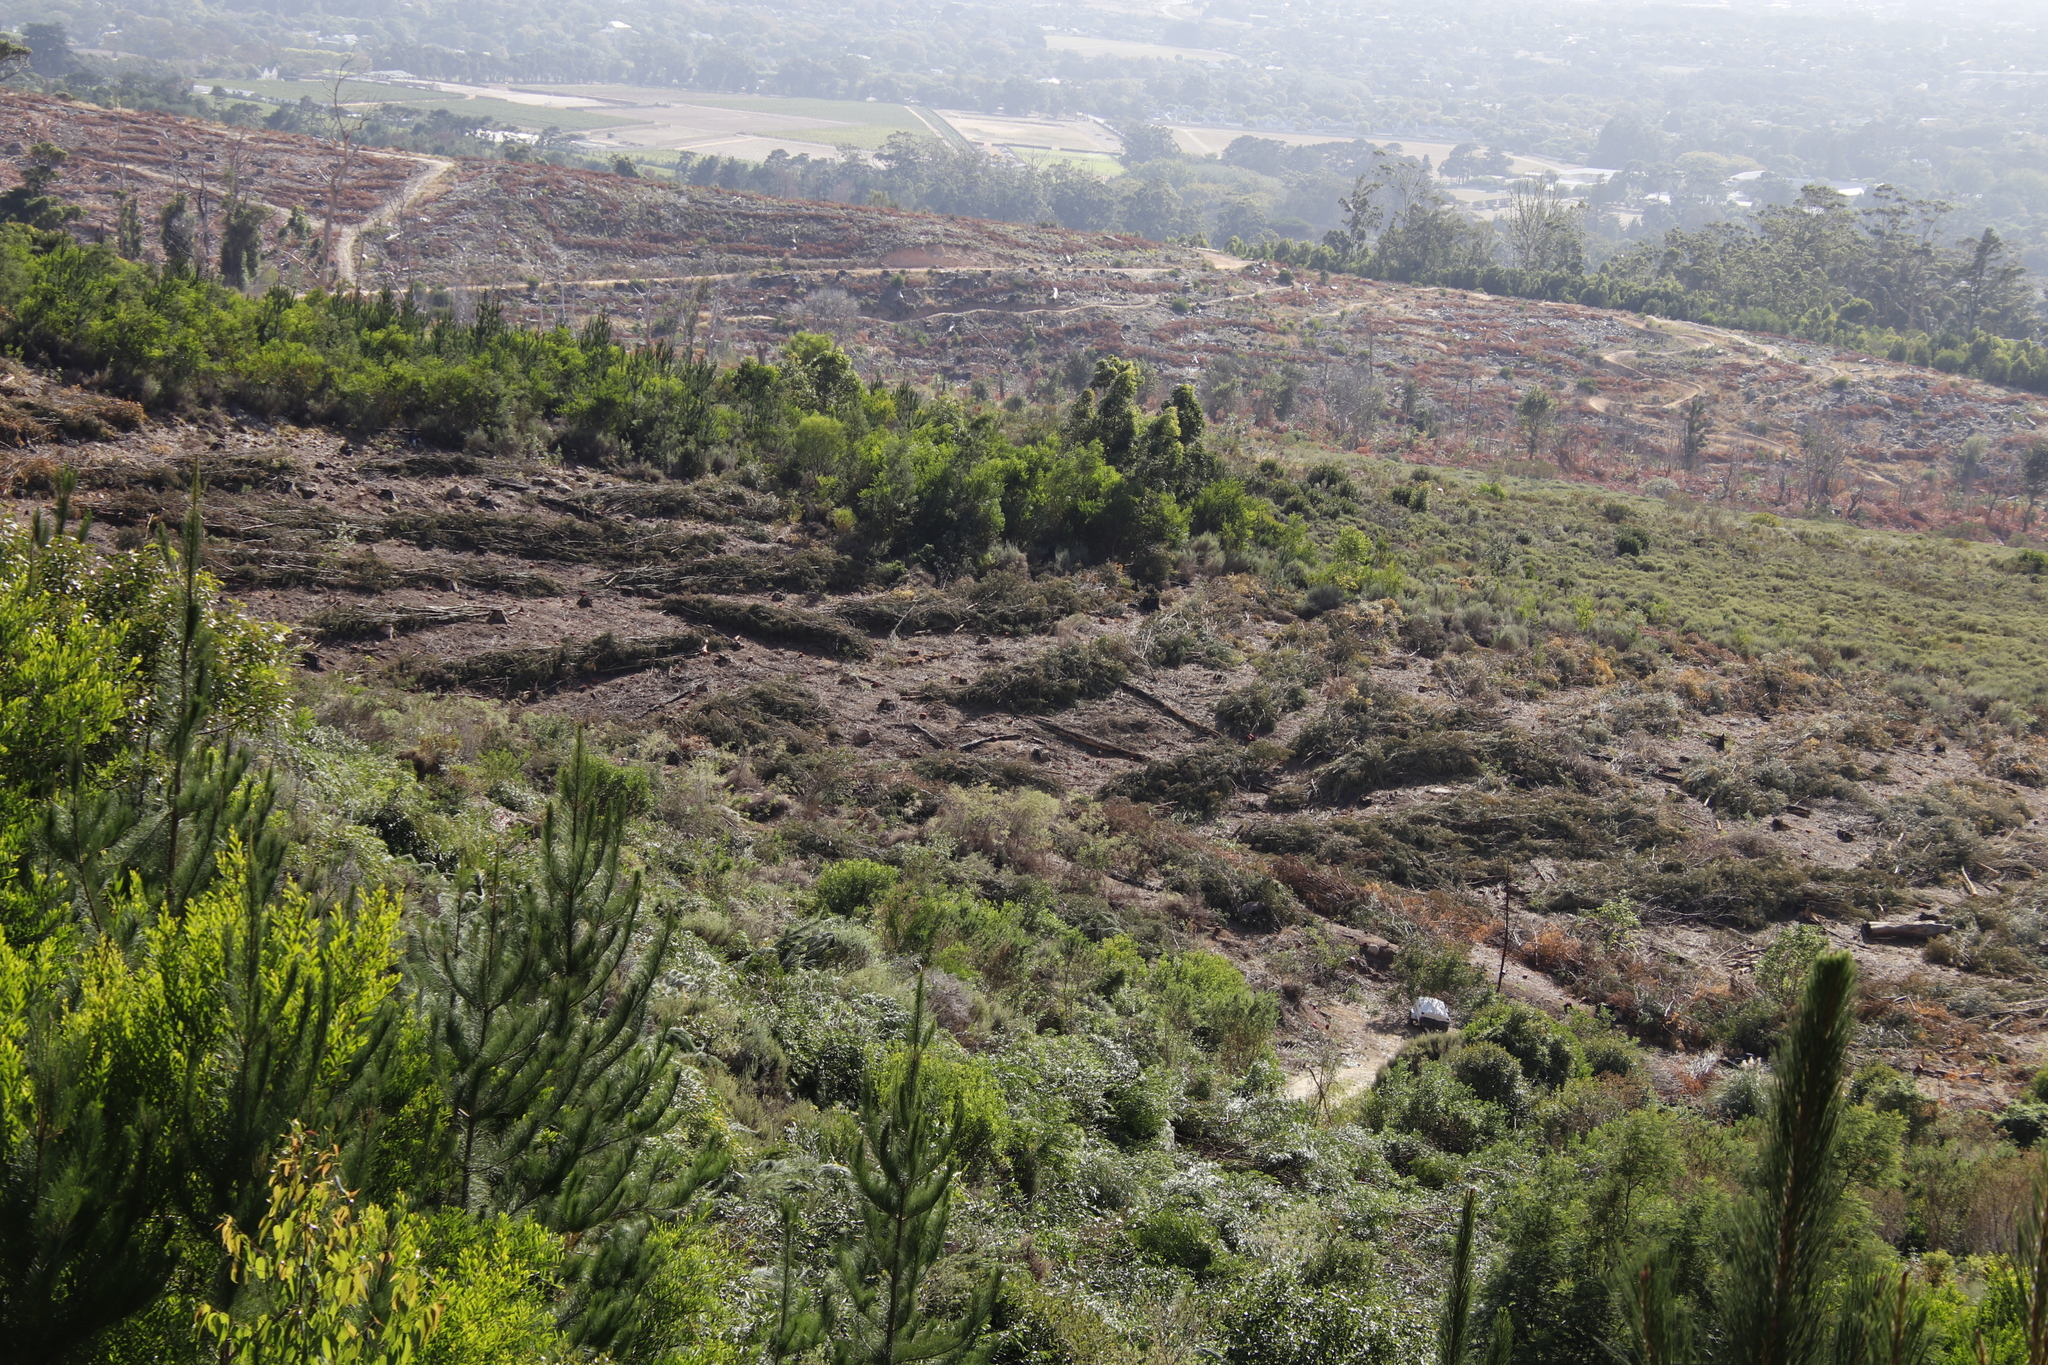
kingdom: Plantae
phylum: Tracheophyta
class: Magnoliopsida
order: Fabales
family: Fabaceae
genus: Acacia
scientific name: Acacia longifolia
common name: Sydney golden wattle
